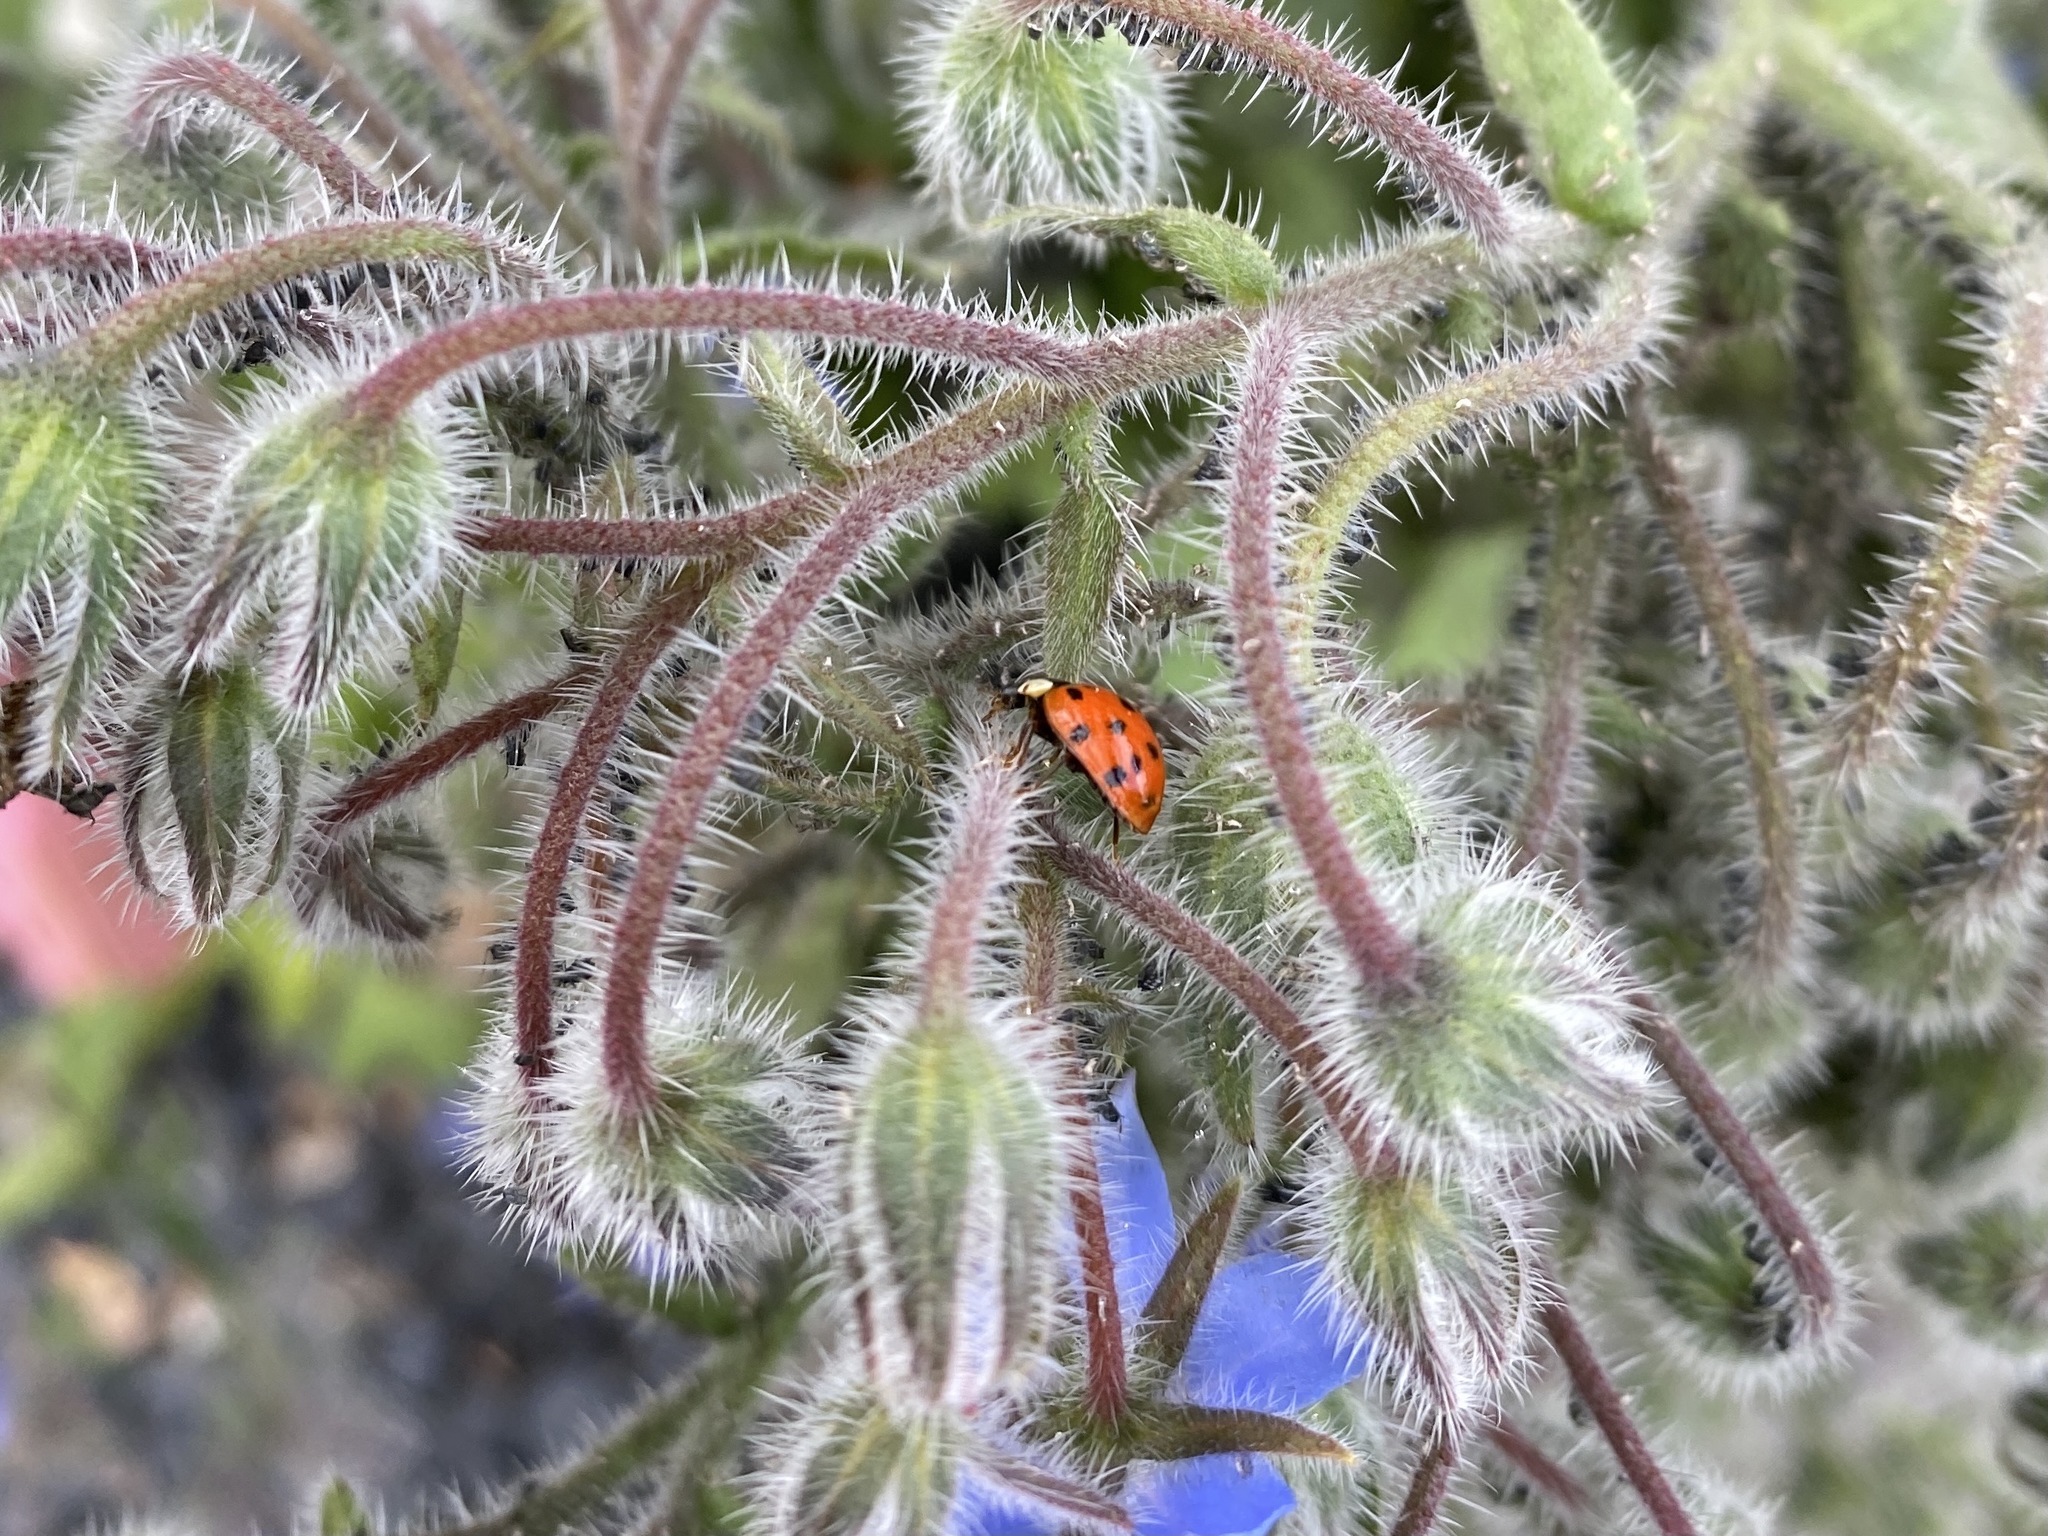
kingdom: Animalia
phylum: Arthropoda
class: Insecta
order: Coleoptera
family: Coccinellidae
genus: Harmonia
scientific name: Harmonia axyridis
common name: Harlequin ladybird
